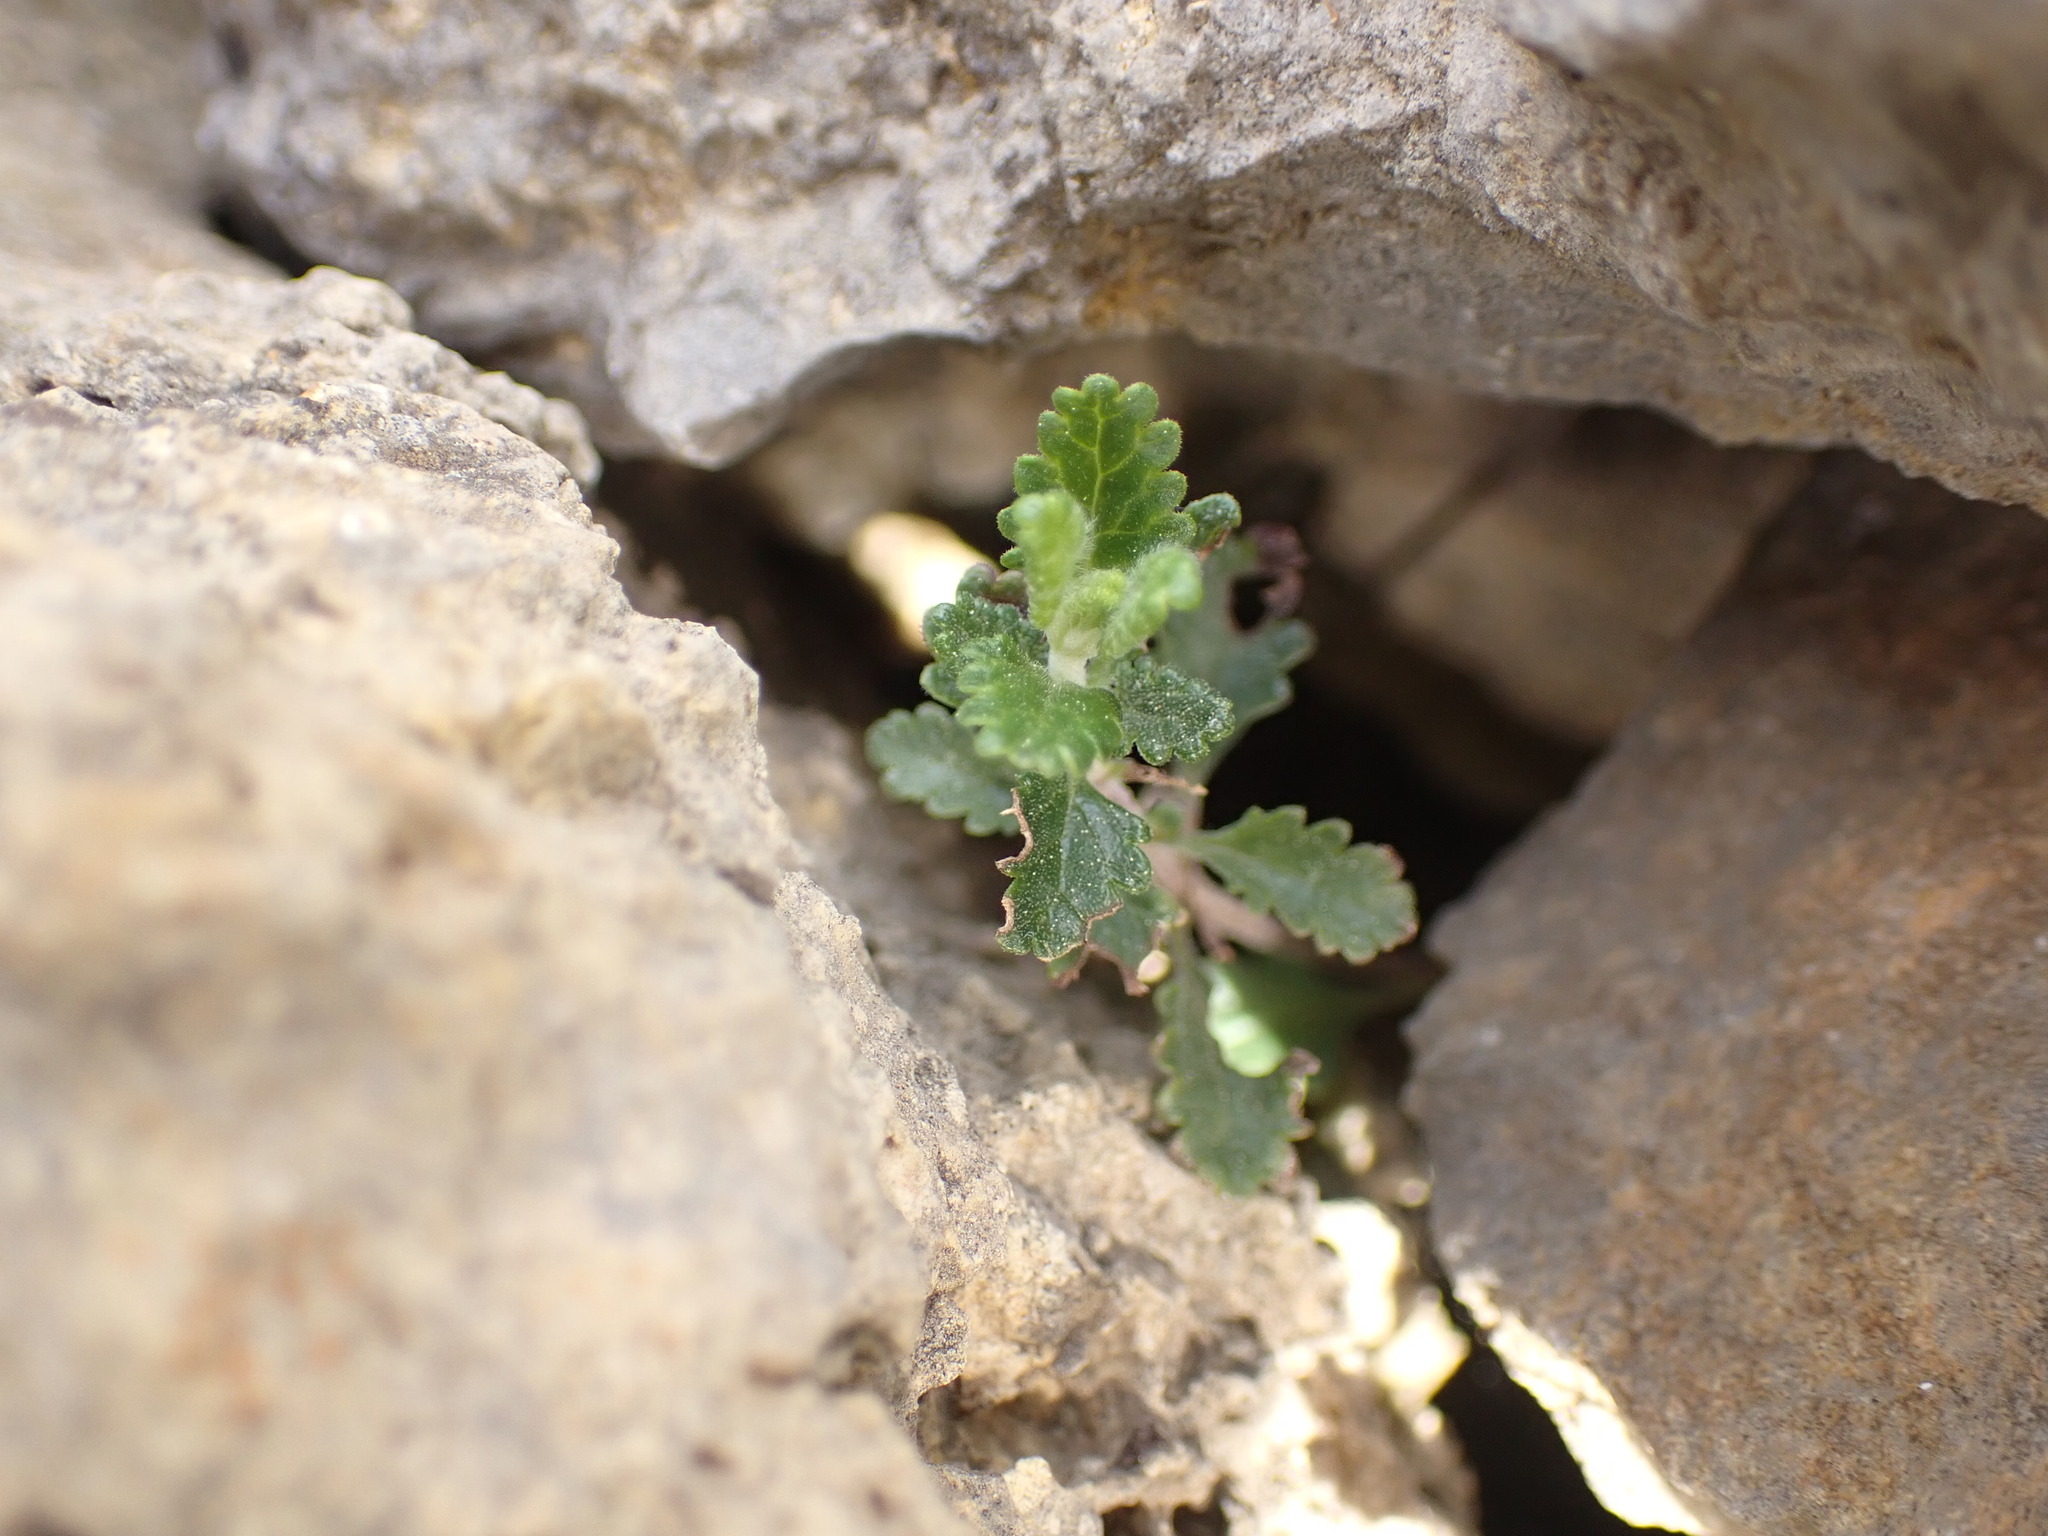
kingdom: Plantae
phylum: Tracheophyta
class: Magnoliopsida
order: Lamiales
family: Lamiaceae
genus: Teucrium
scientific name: Teucrium chamaedrys
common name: Wall germander
